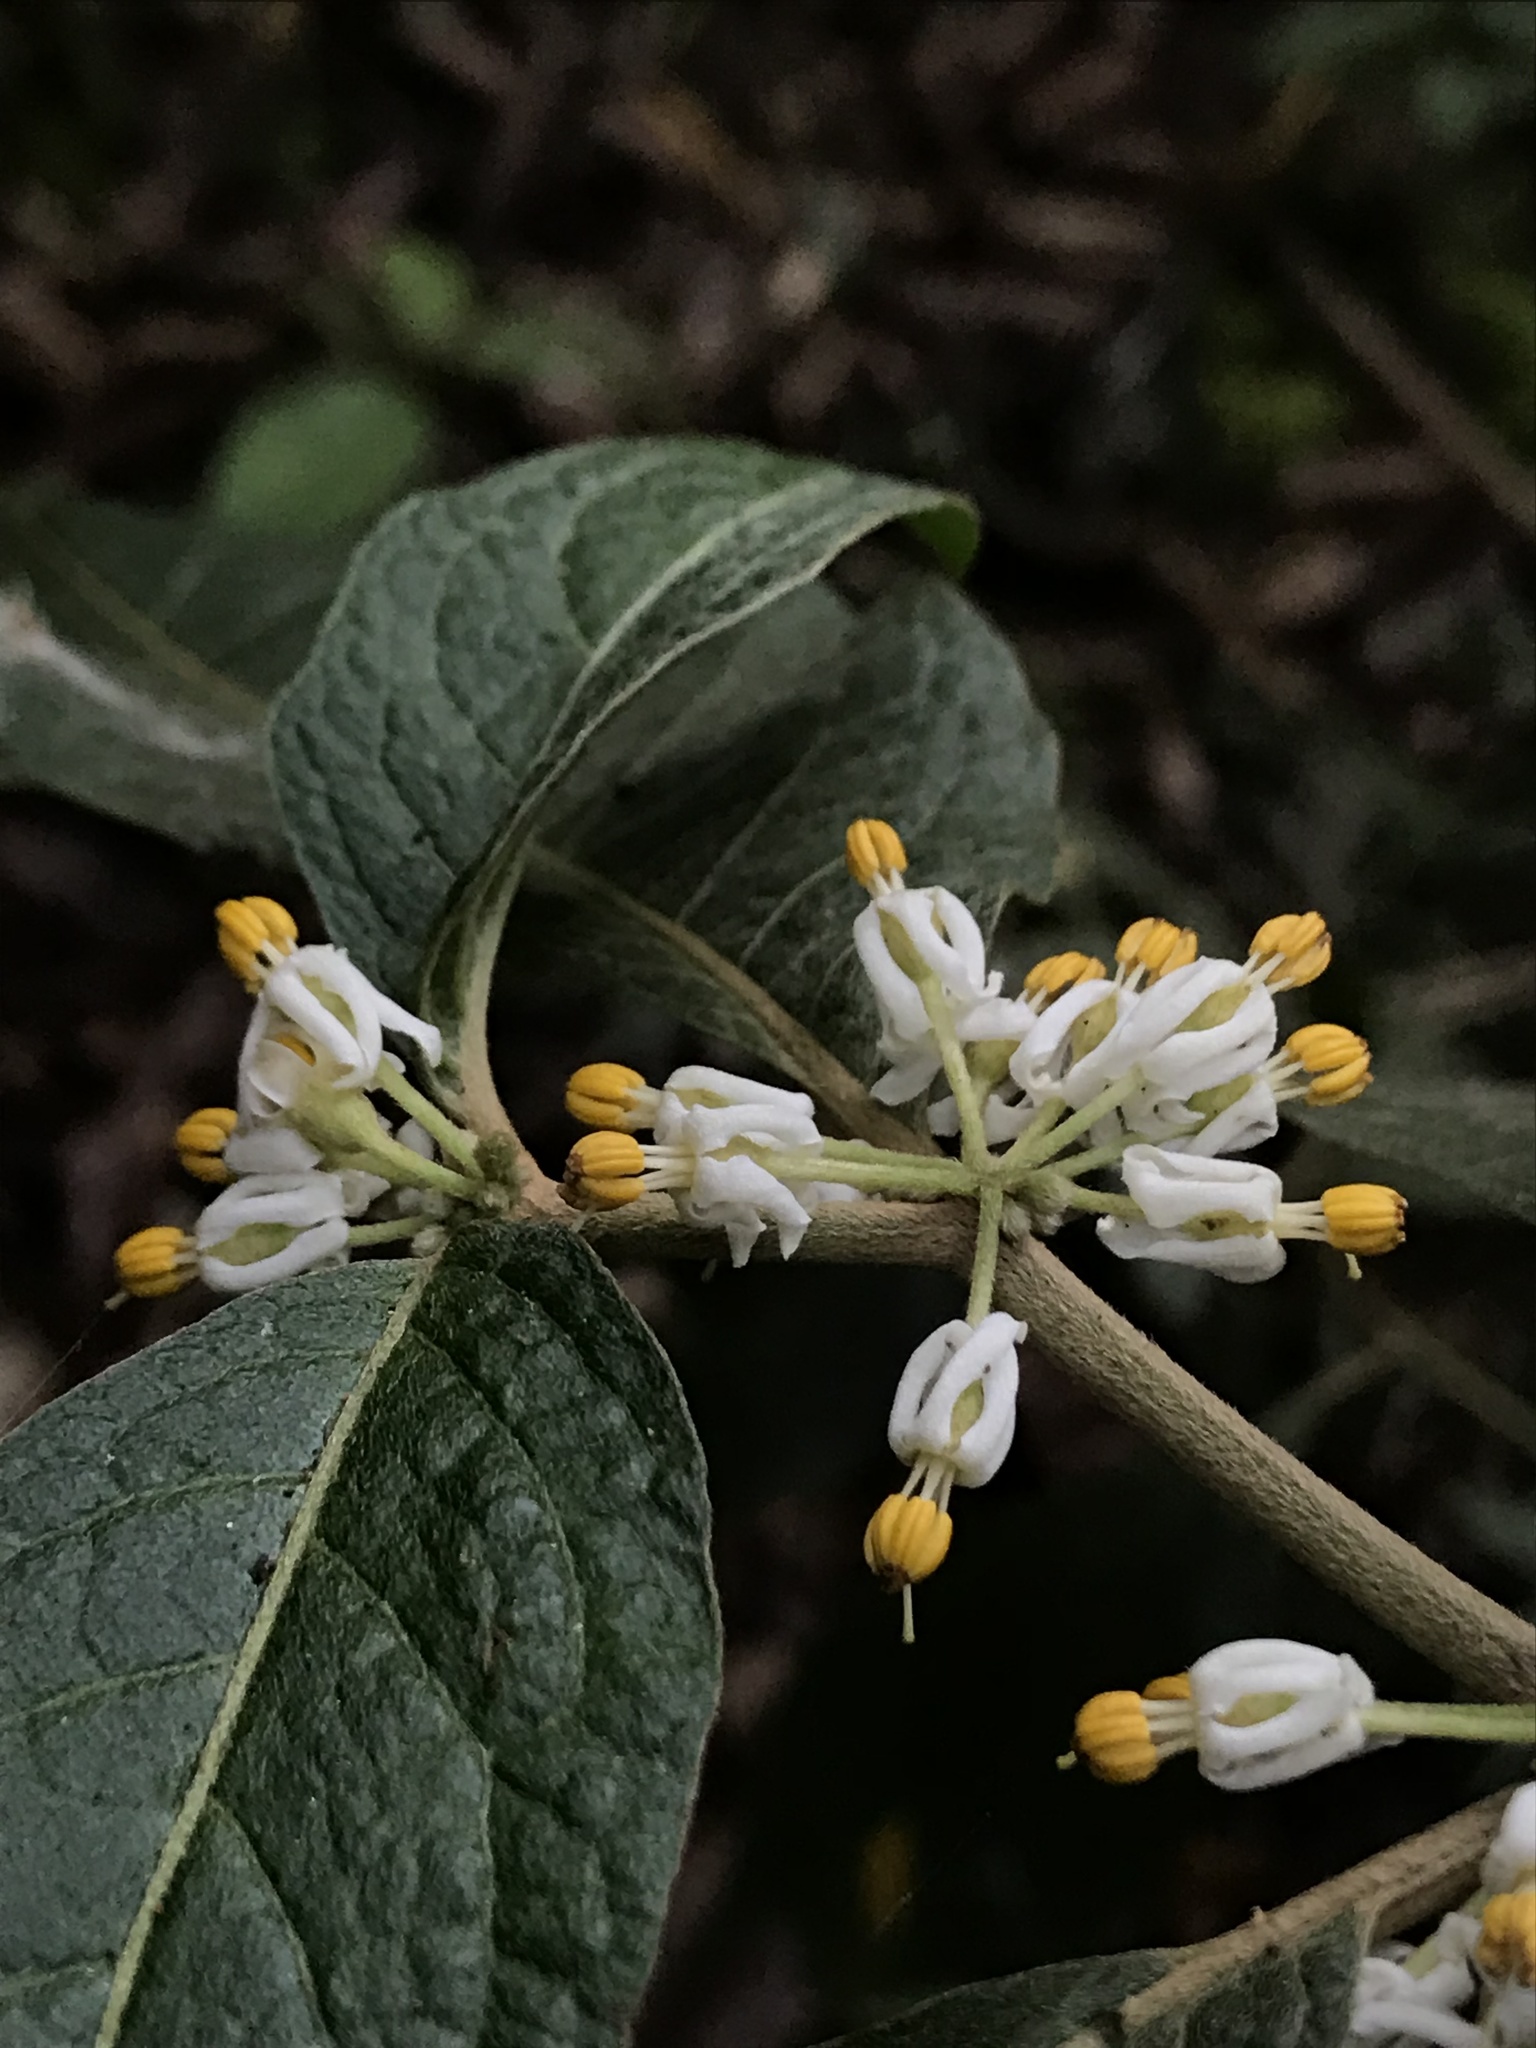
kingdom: Plantae
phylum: Tracheophyta
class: Magnoliopsida
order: Solanales
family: Solanaceae
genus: Lycianthes
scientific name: Lycianthes radiata
